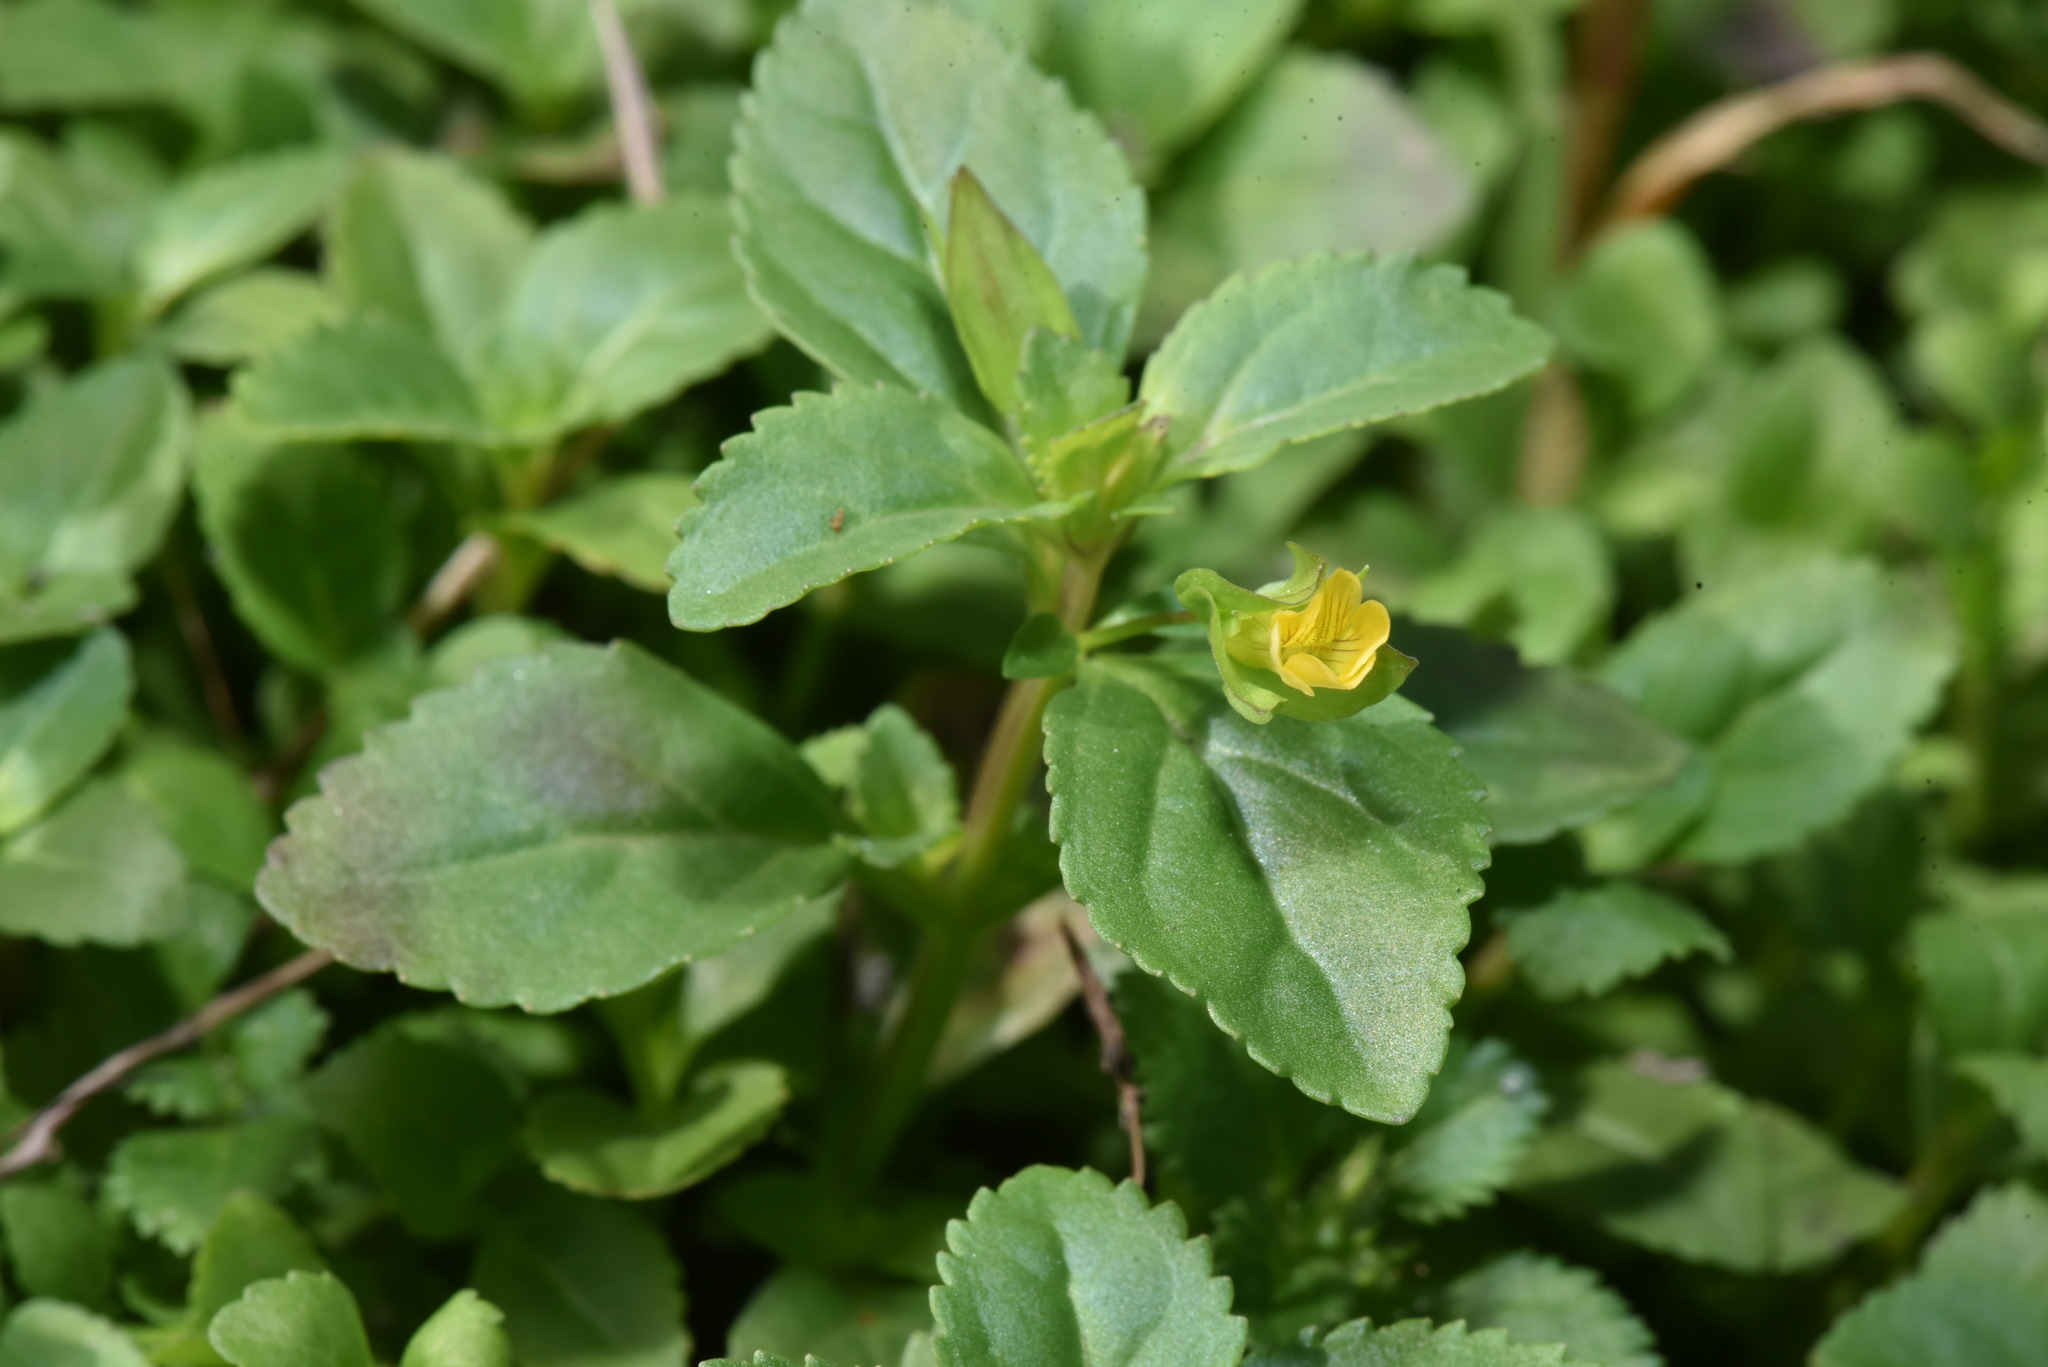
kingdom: Plantae
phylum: Tracheophyta
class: Magnoliopsida
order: Lamiales
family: Plantaginaceae
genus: Mecardonia
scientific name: Mecardonia procumbens
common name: Baby jump-up
